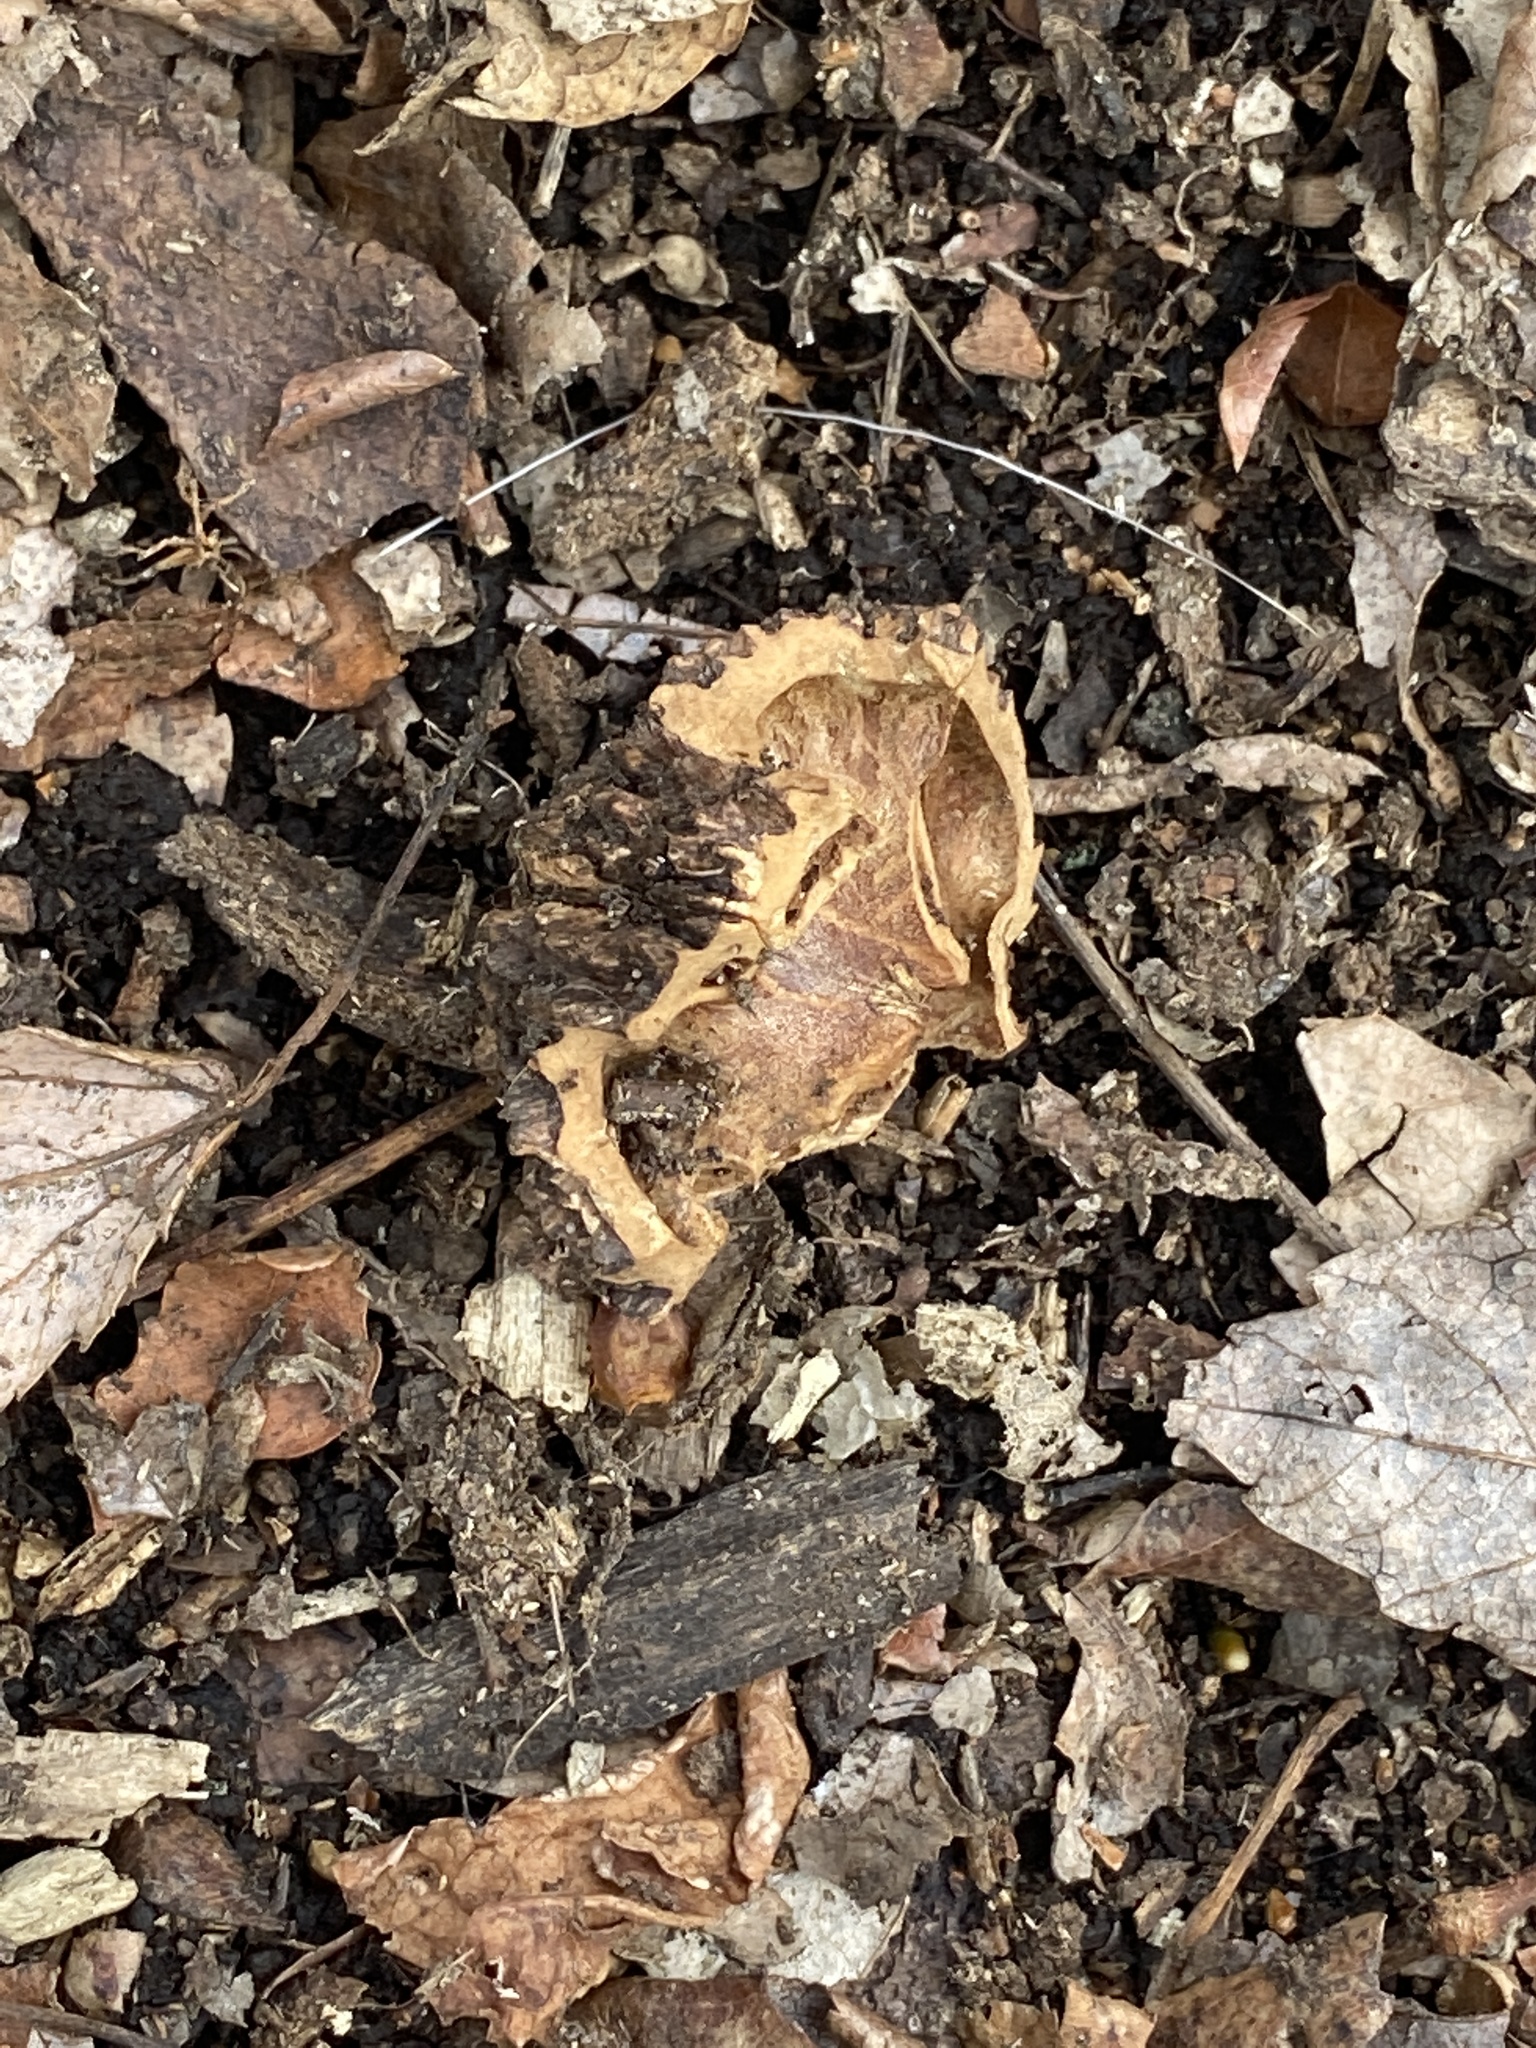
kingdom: Plantae
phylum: Tracheophyta
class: Magnoliopsida
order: Fagales
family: Juglandaceae
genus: Juglans
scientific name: Juglans nigra
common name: Black walnut
